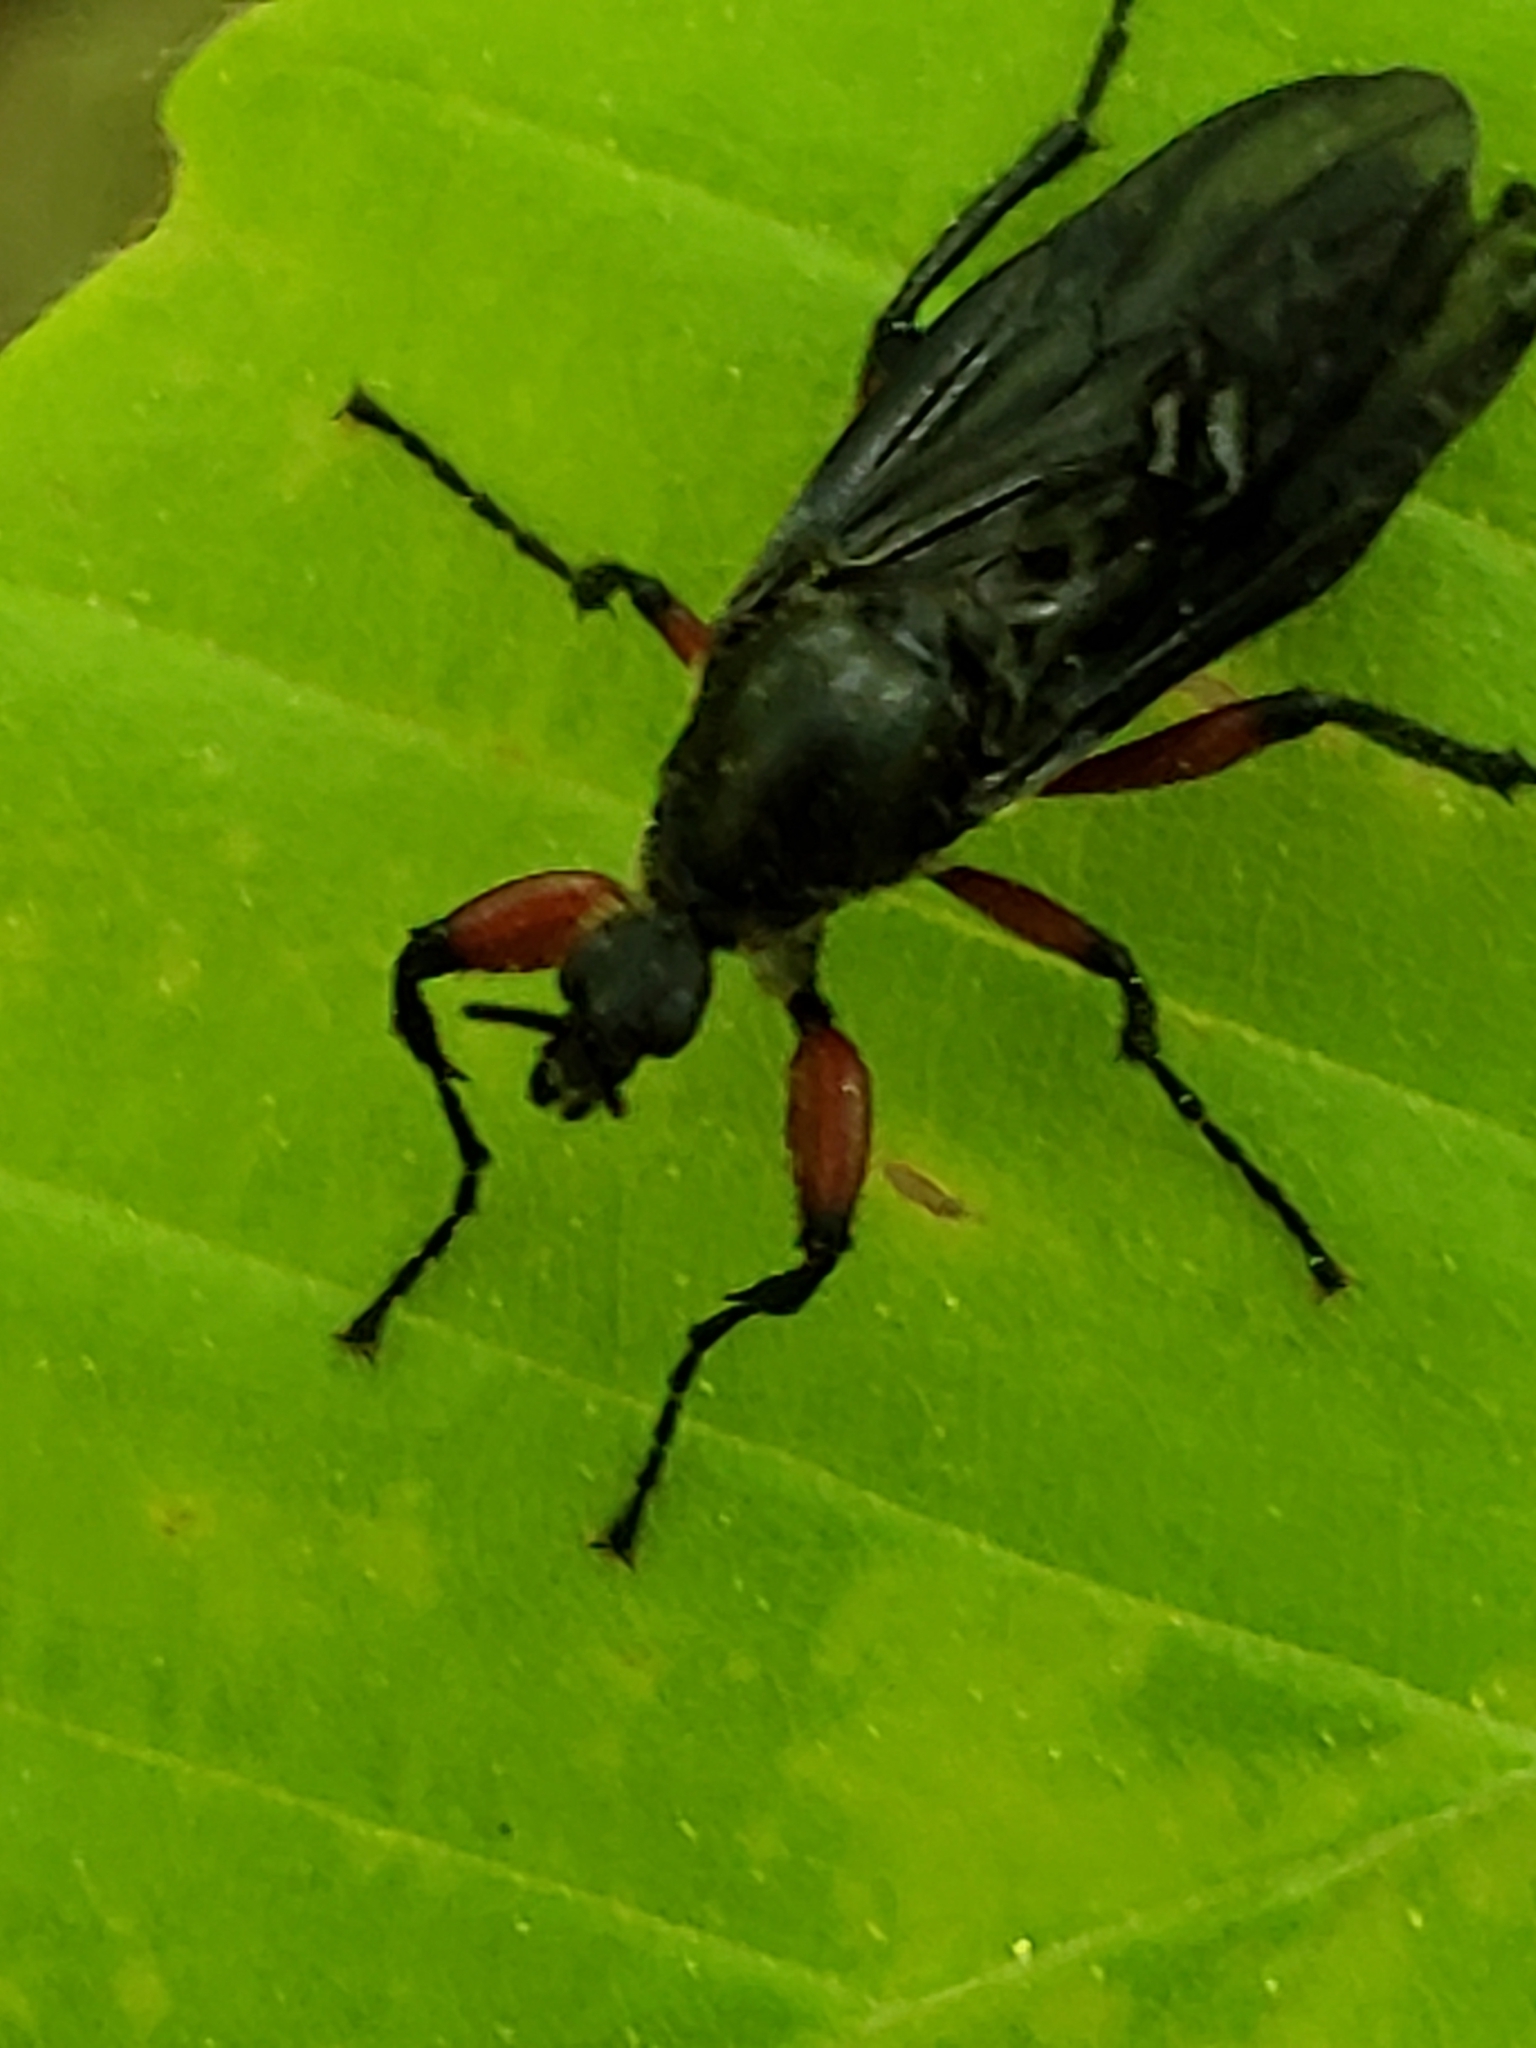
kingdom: Animalia
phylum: Arthropoda
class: Insecta
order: Diptera
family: Bibionidae
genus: Bibio
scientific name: Bibio femoratus
